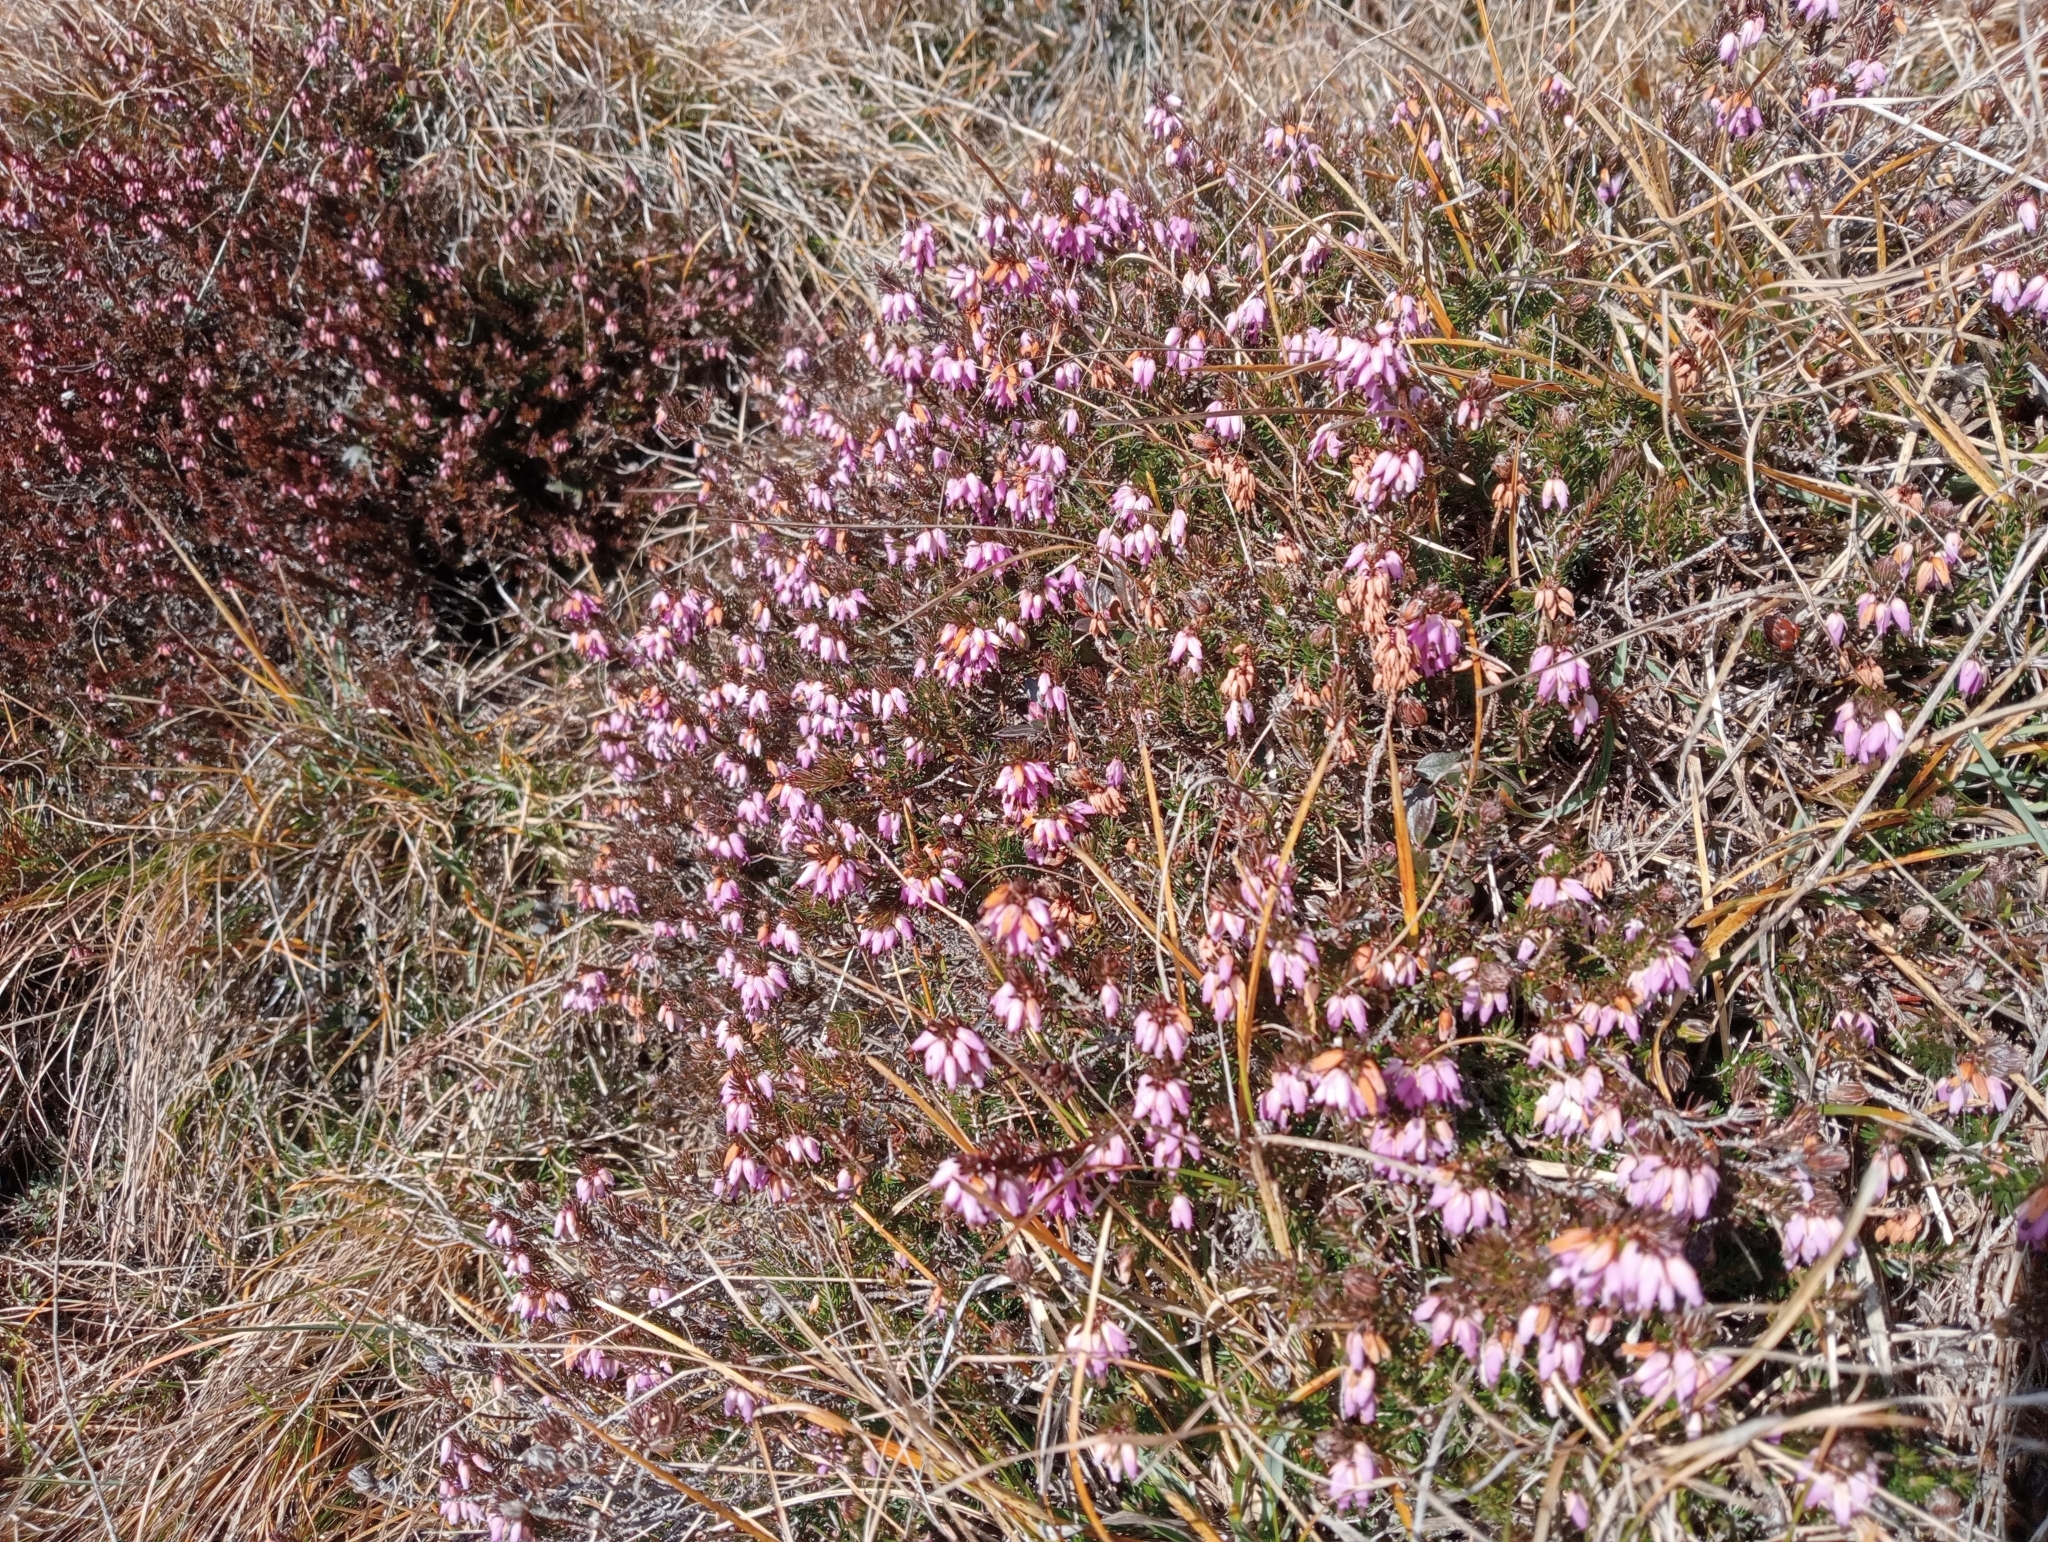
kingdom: Plantae
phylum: Tracheophyta
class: Magnoliopsida
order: Ericales
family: Ericaceae
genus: Erica
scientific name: Erica carnea
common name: Winter heath
